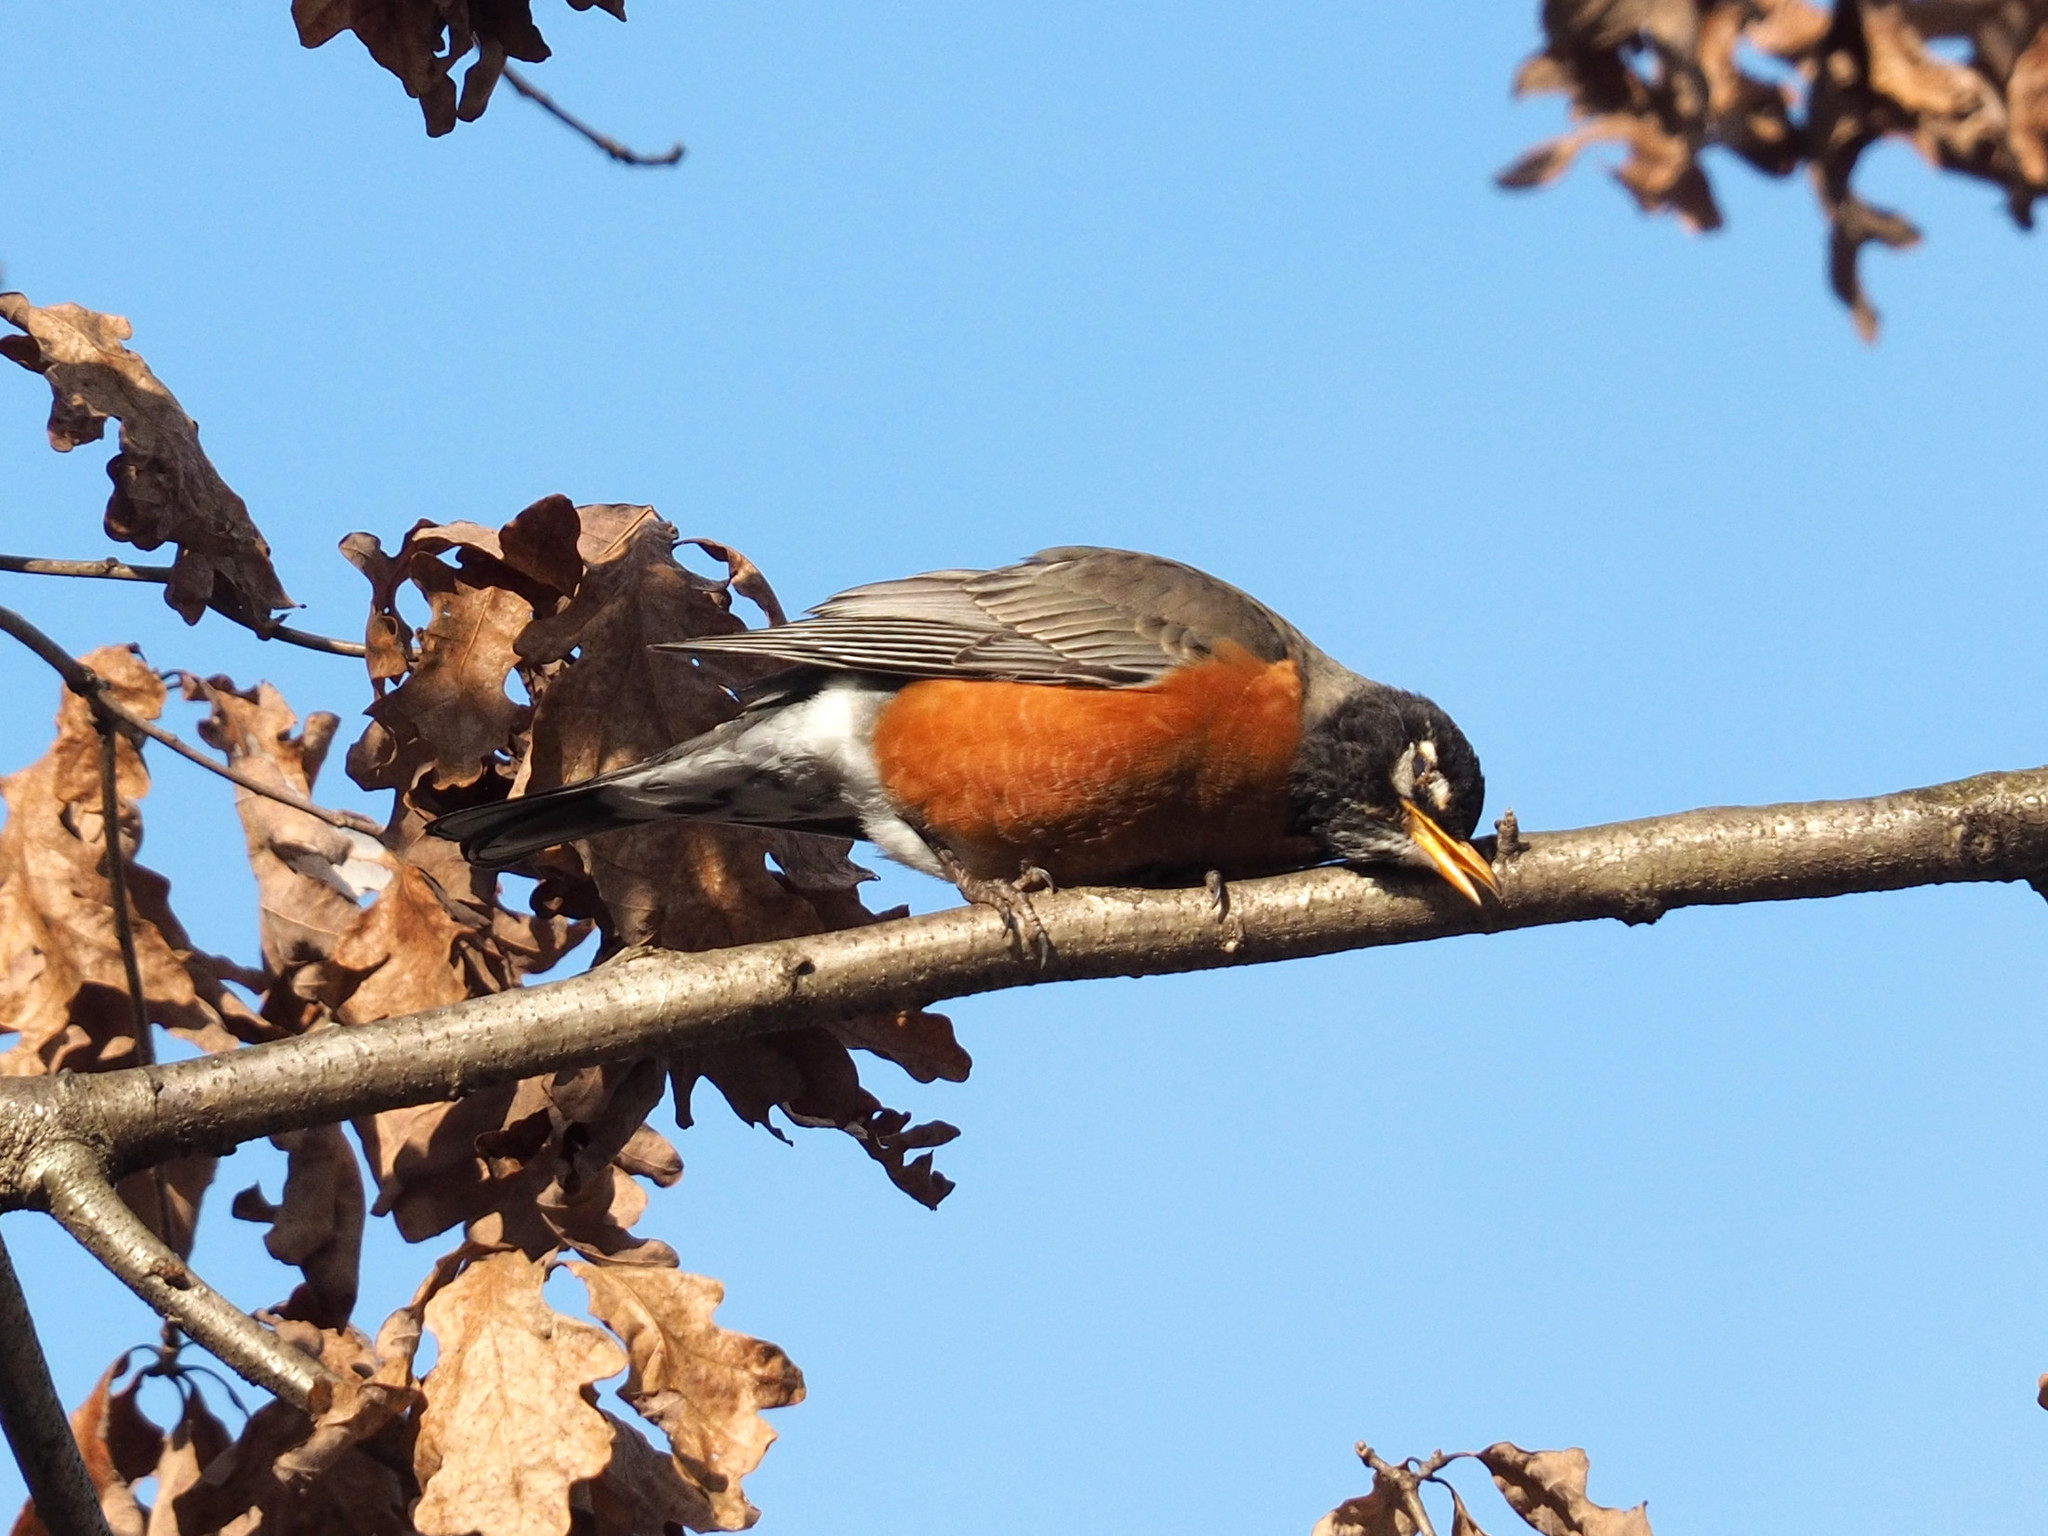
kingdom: Animalia
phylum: Chordata
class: Aves
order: Passeriformes
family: Turdidae
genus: Turdus
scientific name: Turdus migratorius
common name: American robin
